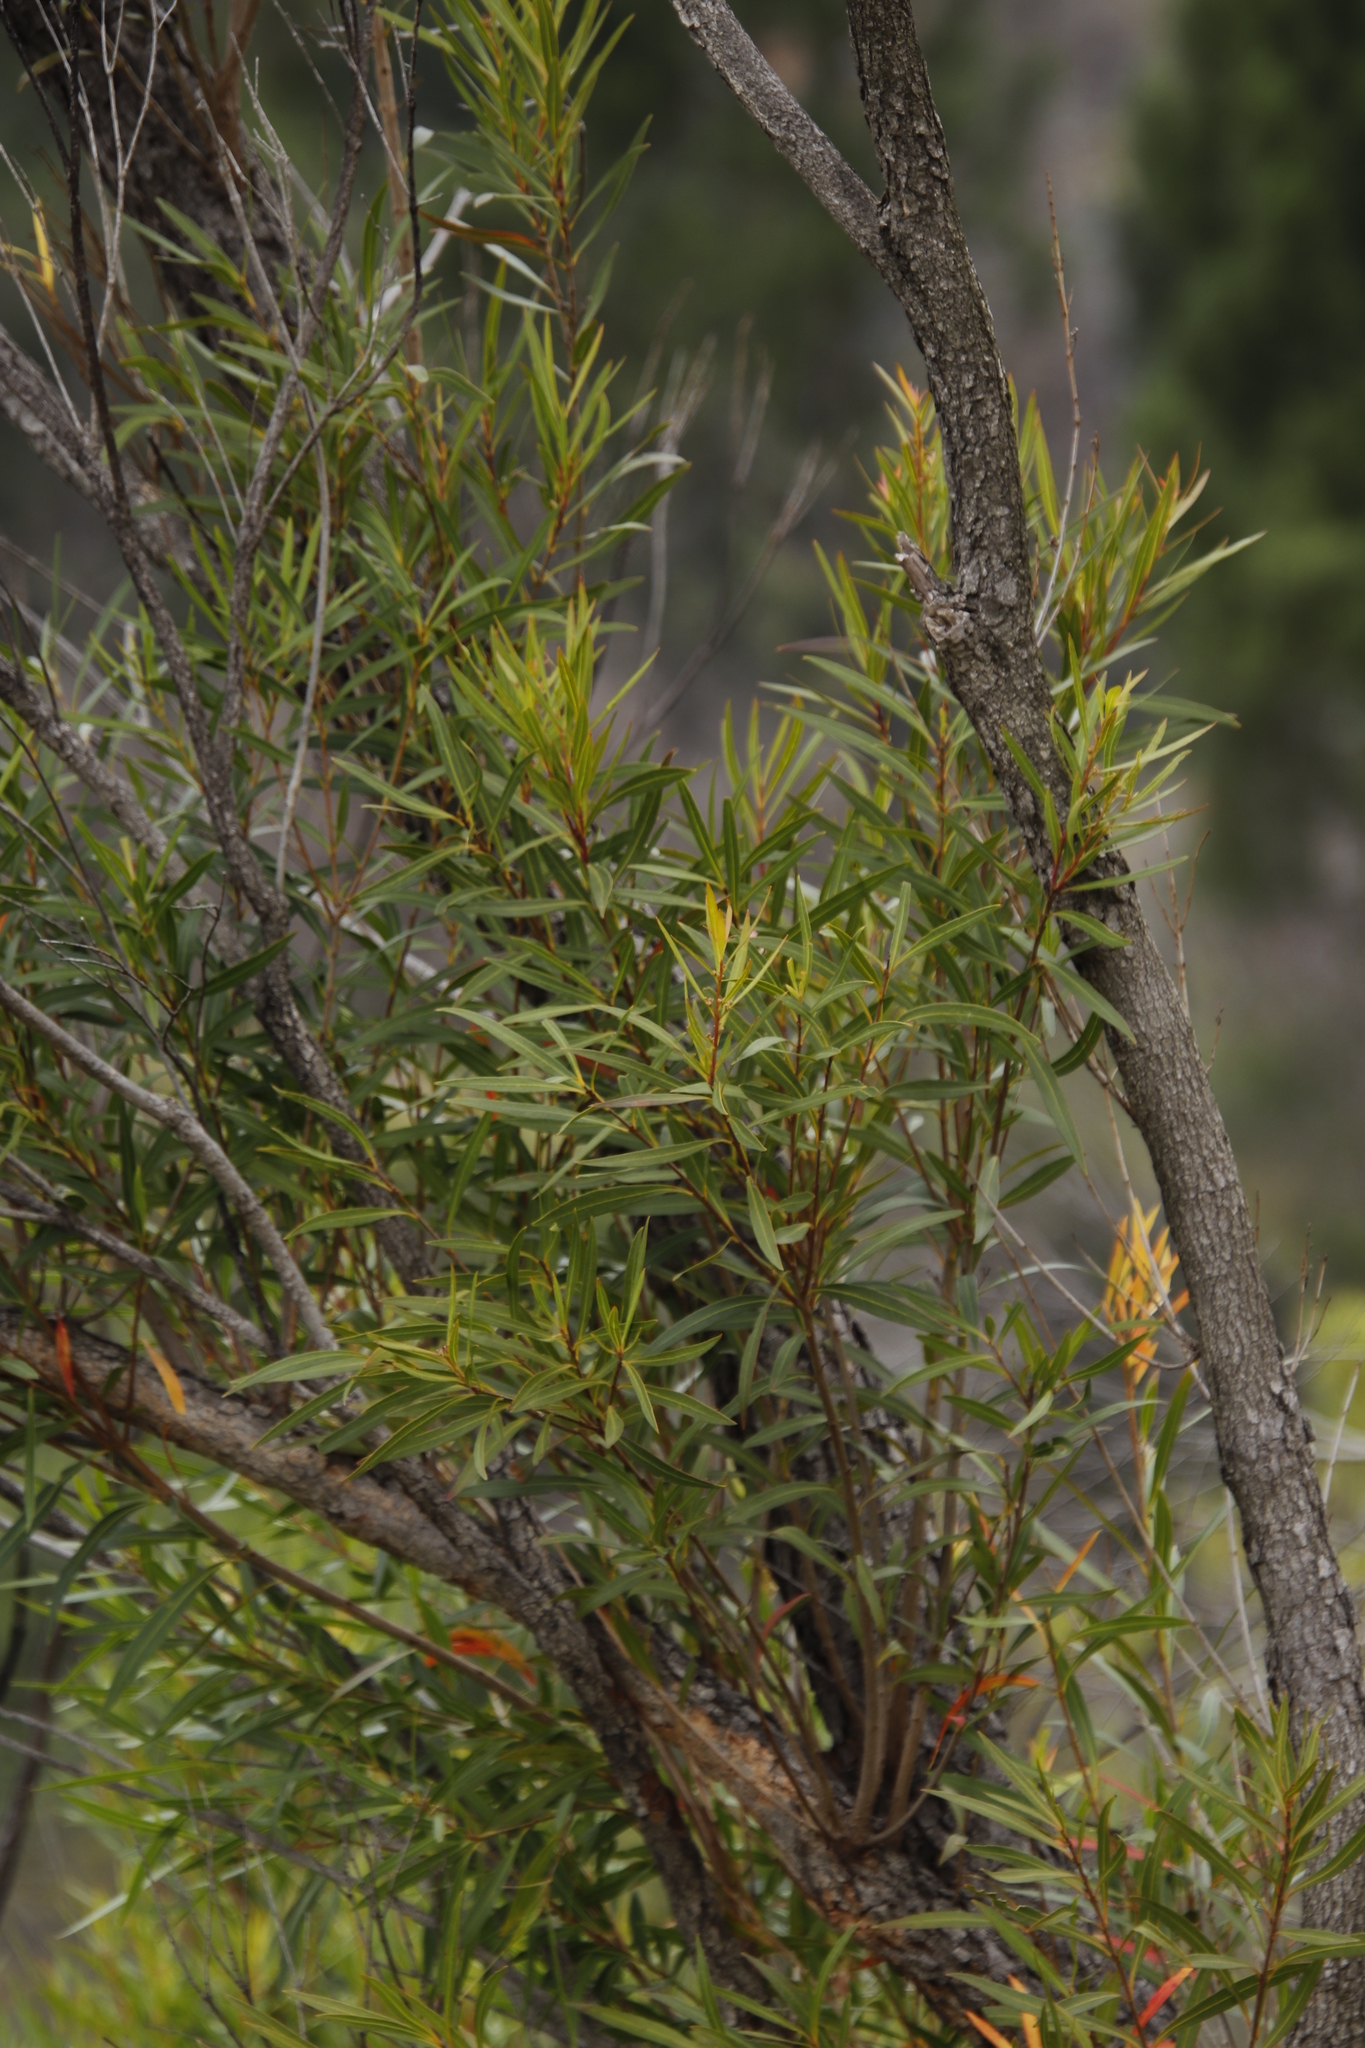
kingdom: Plantae
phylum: Tracheophyta
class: Magnoliopsida
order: Myrtales
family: Myrtaceae
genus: Callistemon
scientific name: Callistemon lanceolatus
